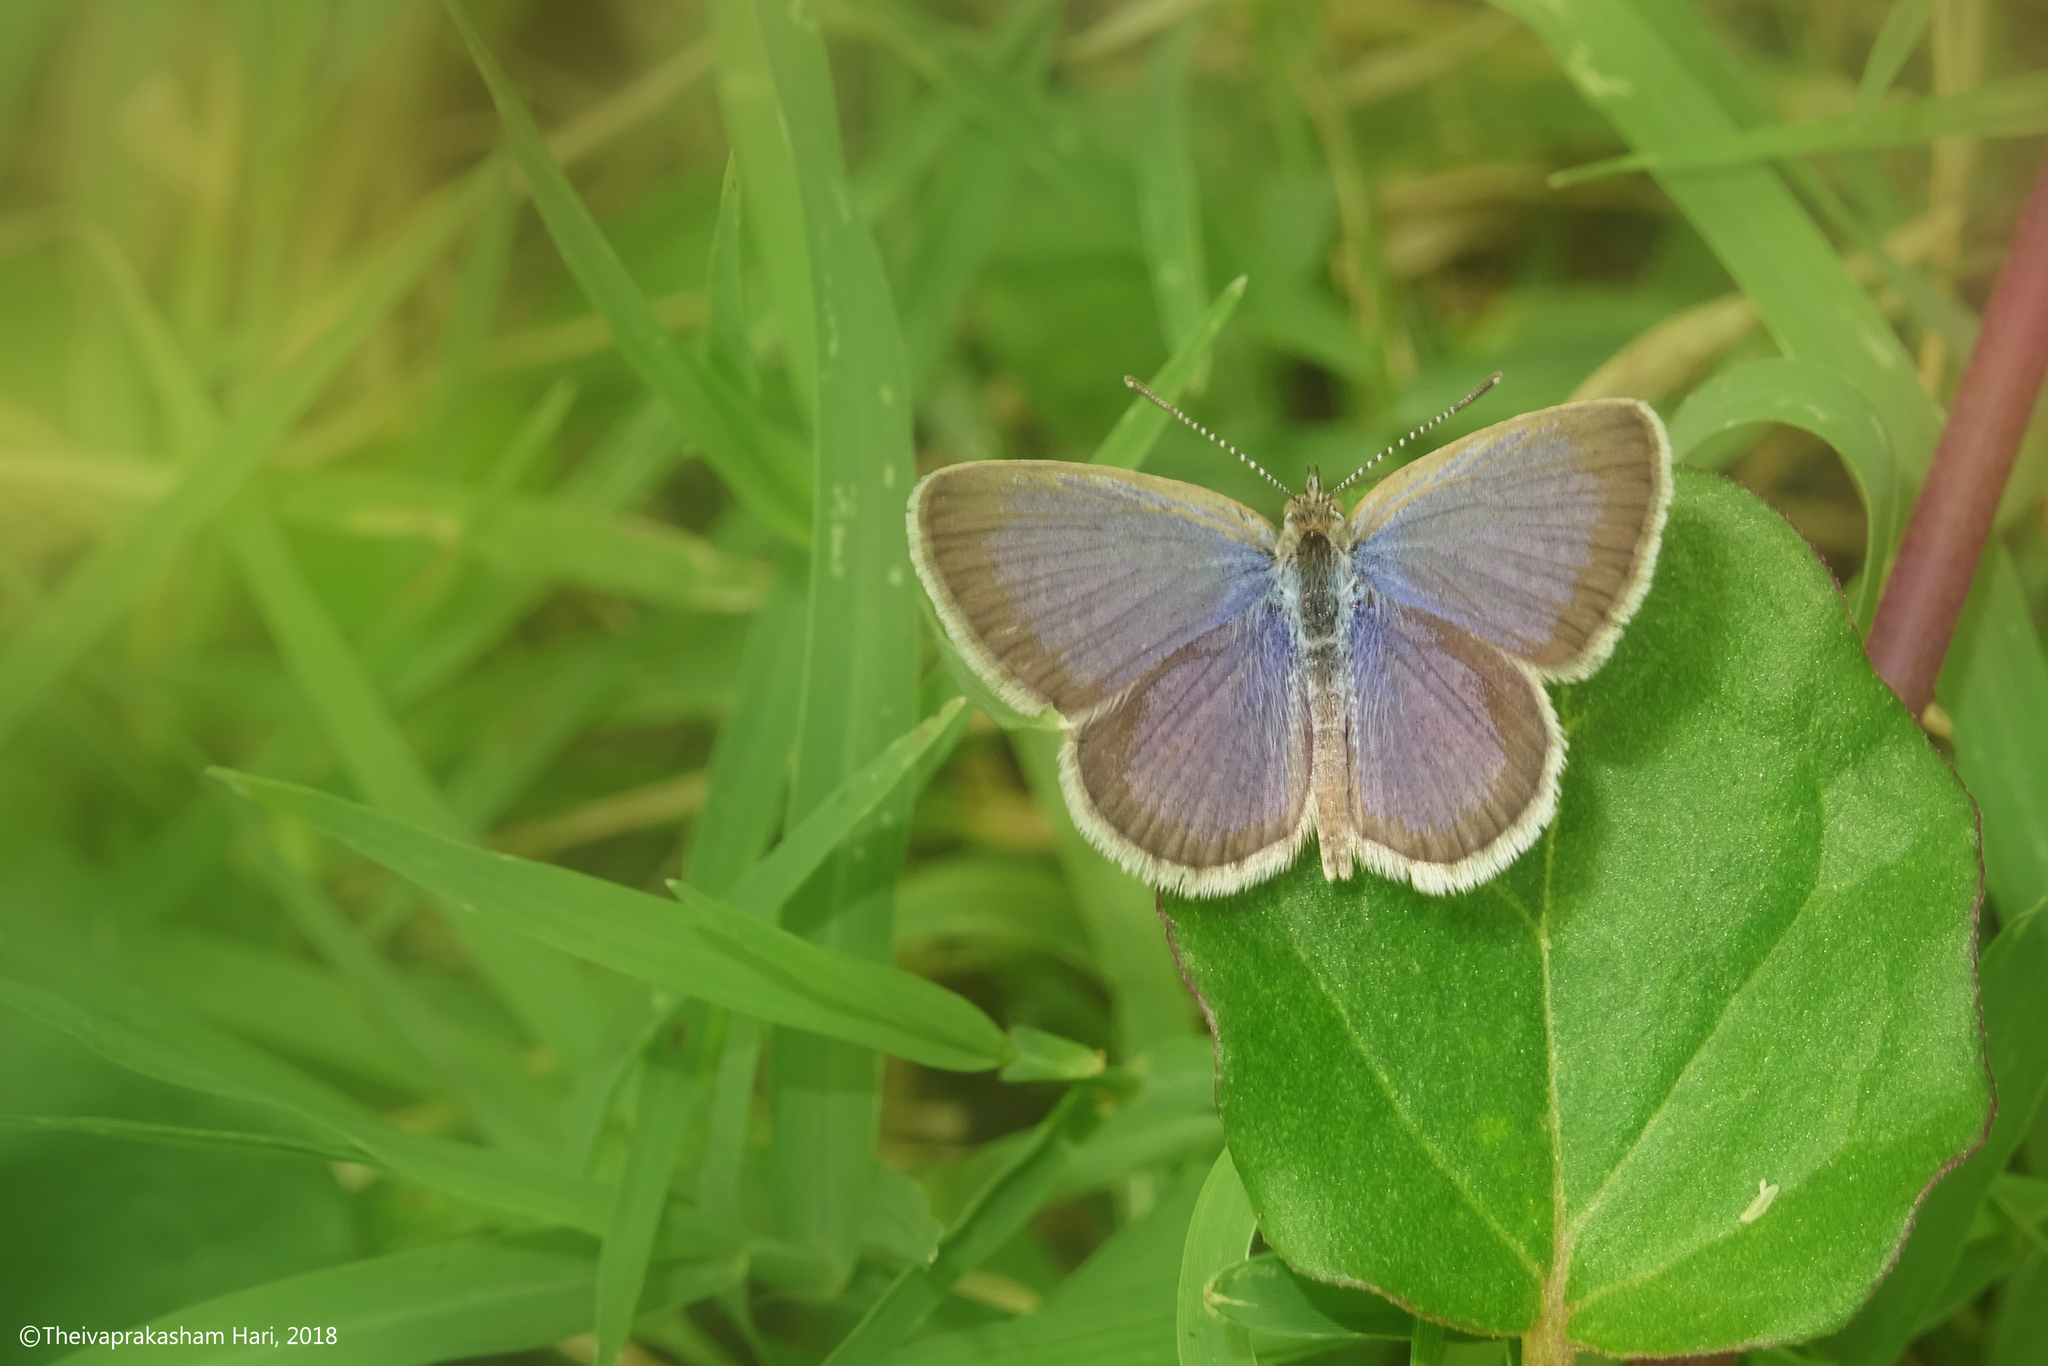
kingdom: Animalia
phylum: Arthropoda
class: Insecta
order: Lepidoptera
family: Lycaenidae
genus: Zizeeria
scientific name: Zizeeria karsandra
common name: Dark grass blue
